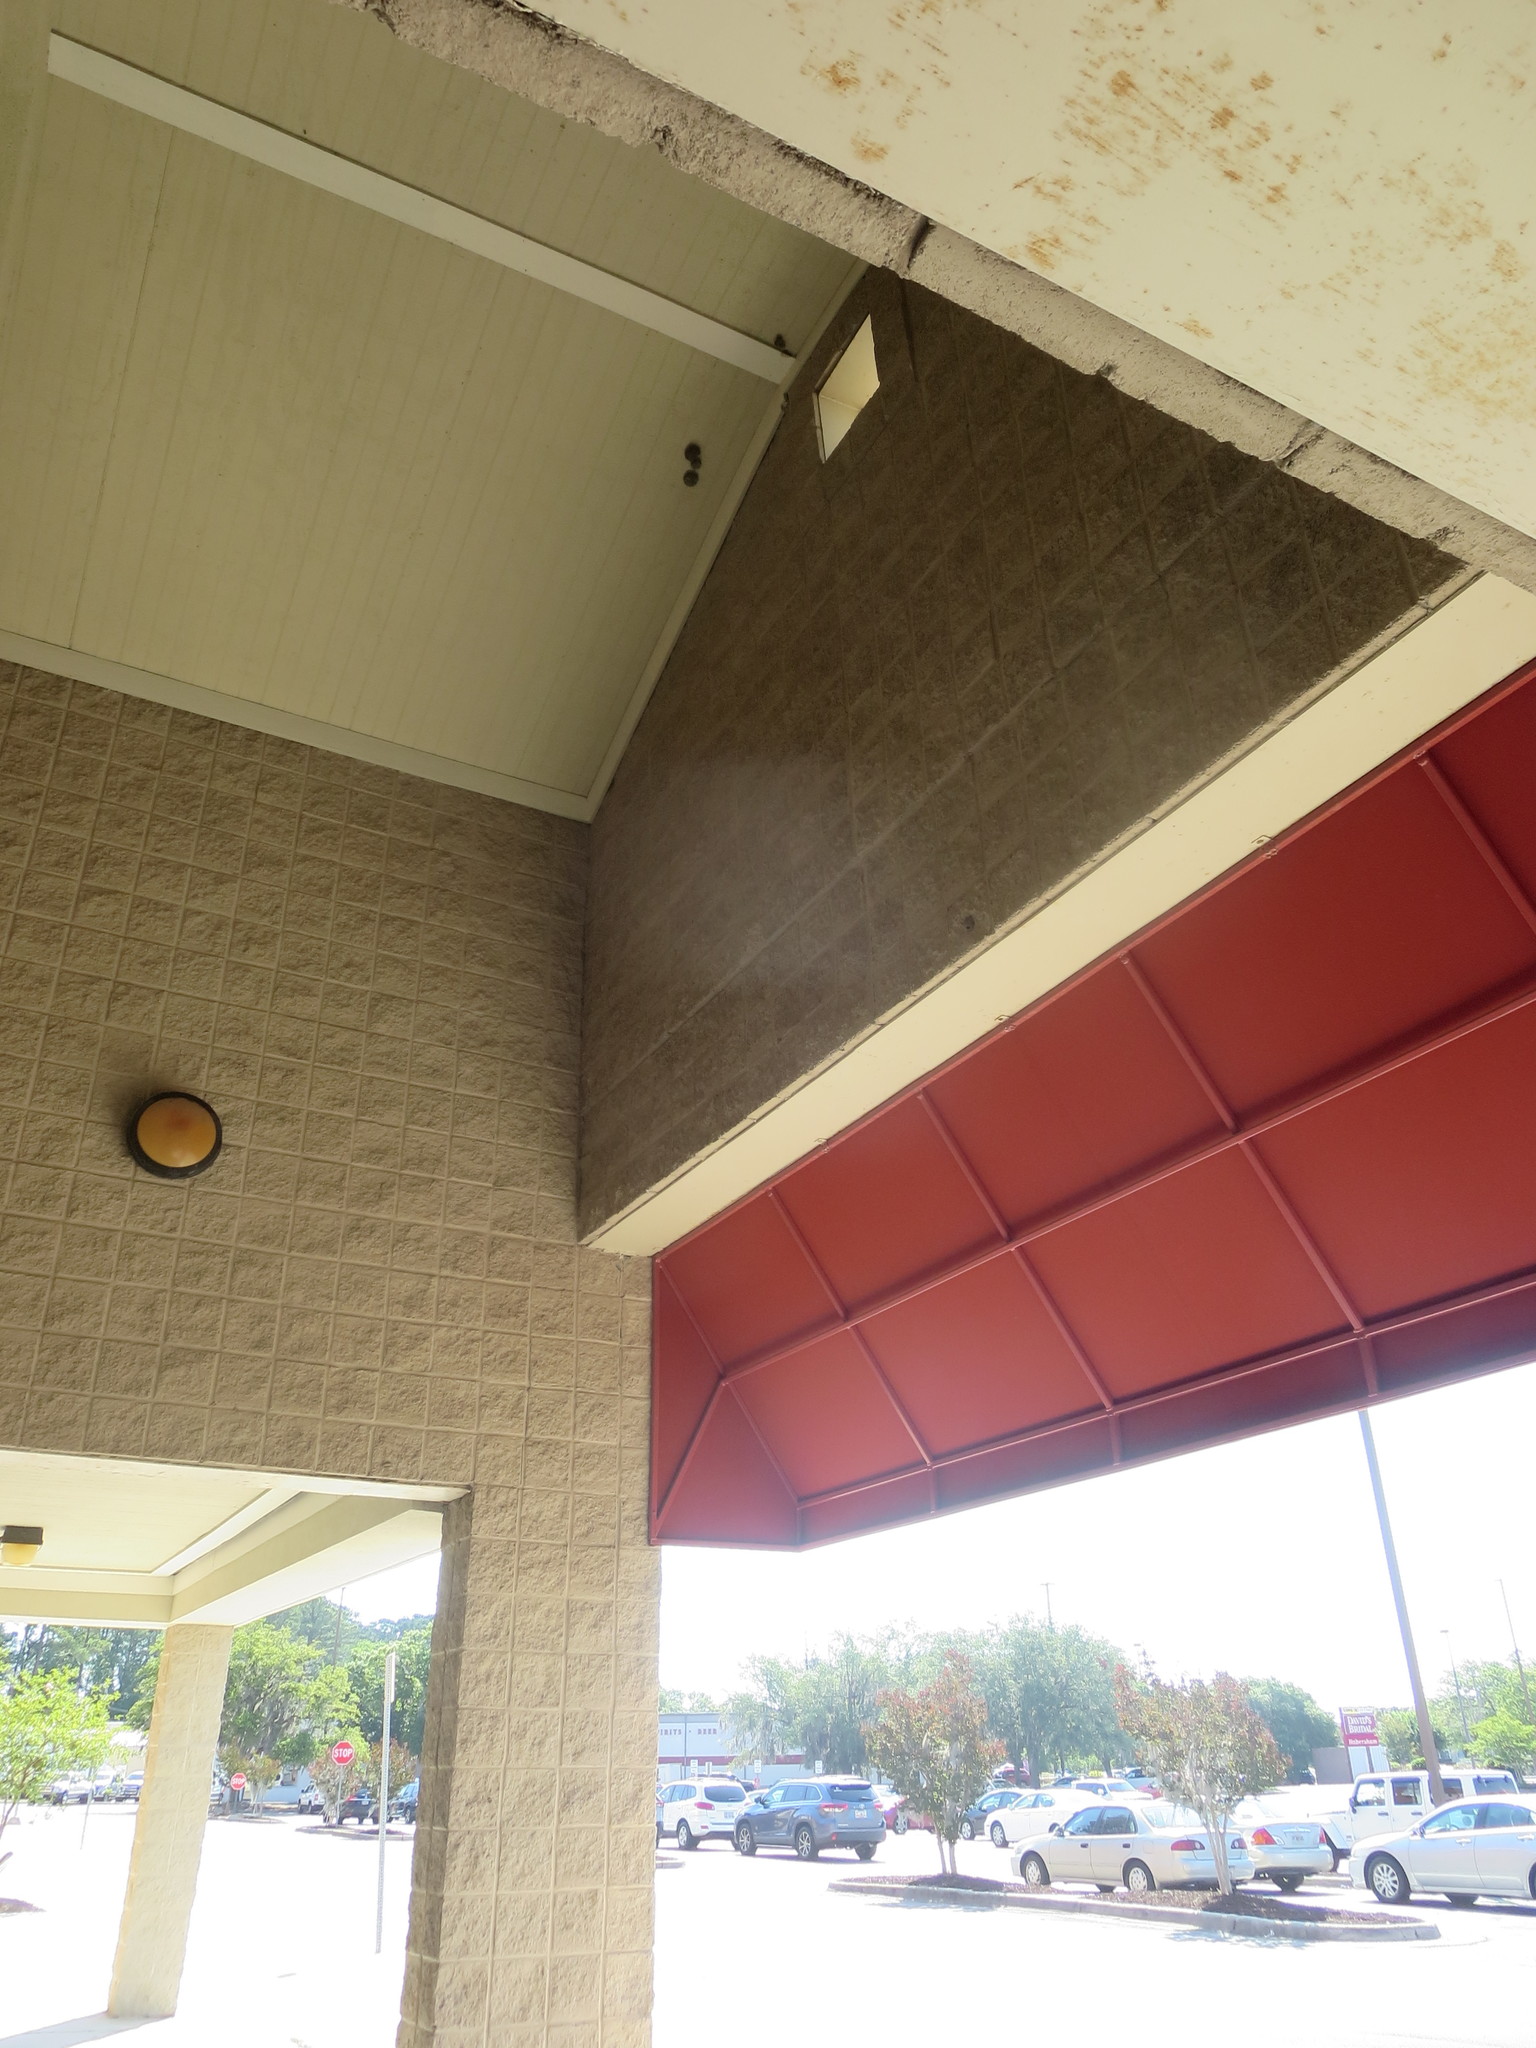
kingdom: Animalia
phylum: Arthropoda
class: Insecta
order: Hymenoptera
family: Eumenidae
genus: Polistes
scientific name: Polistes
